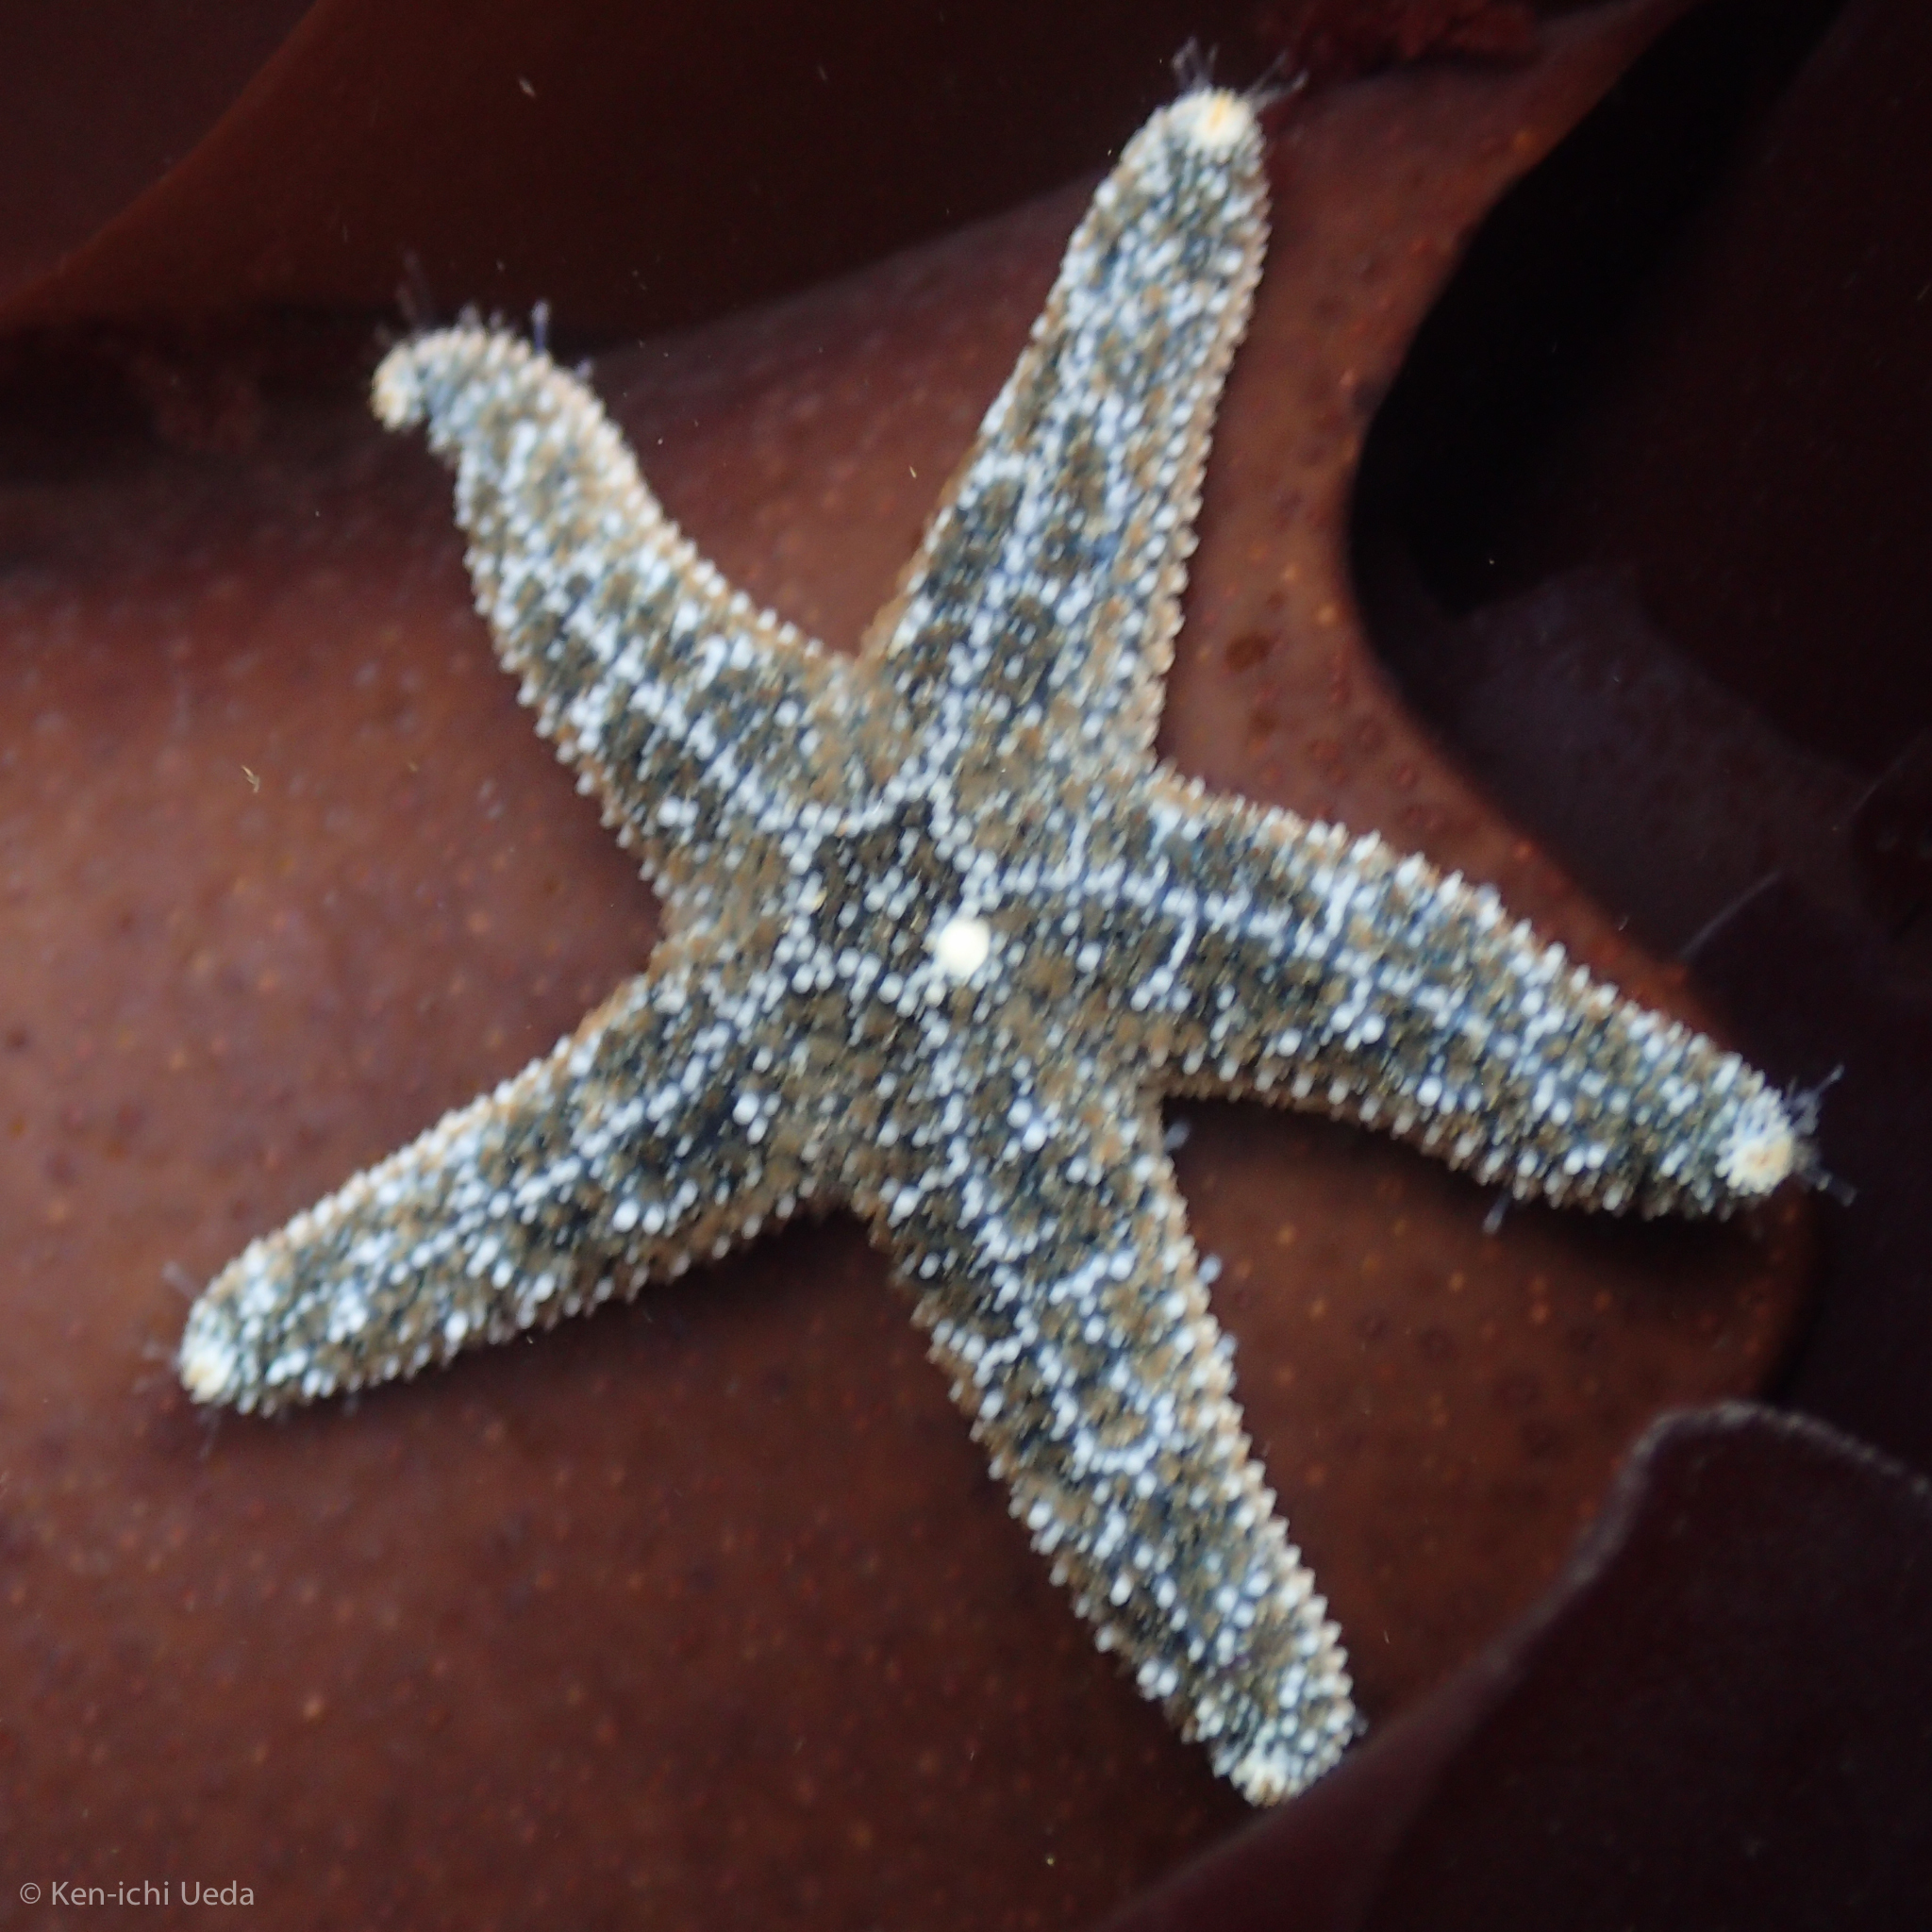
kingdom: Animalia
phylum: Echinodermata
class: Asteroidea
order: Forcipulatida
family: Asteriidae
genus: Pisaster
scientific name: Pisaster ochraceus
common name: Ochre stars
